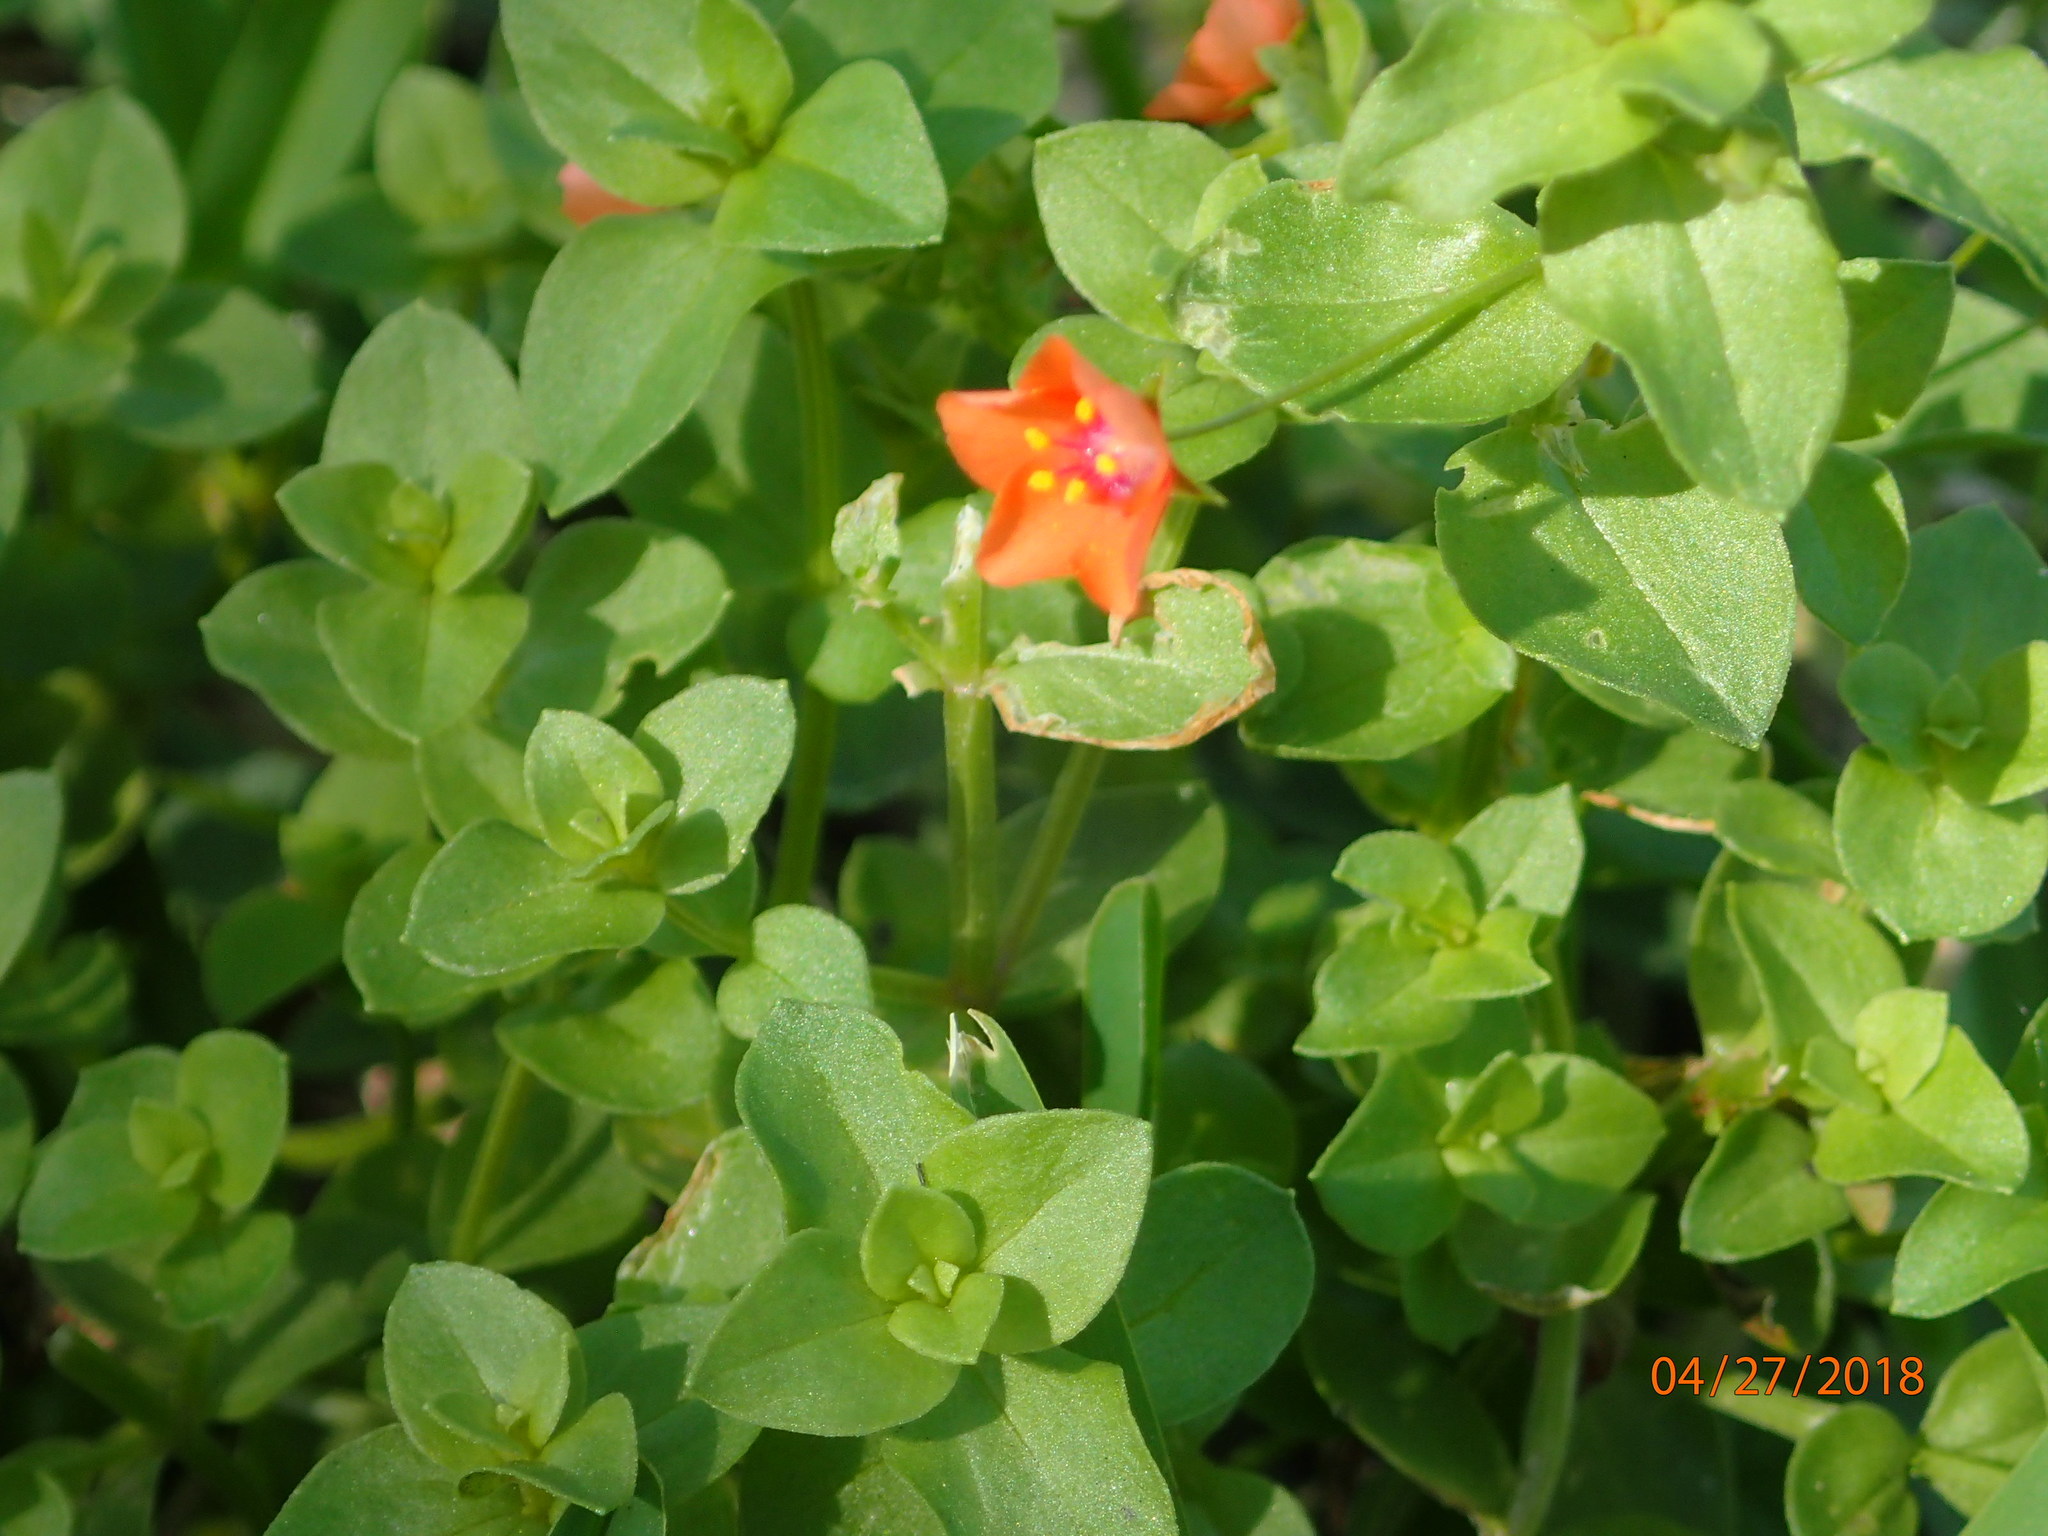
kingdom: Plantae
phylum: Tracheophyta
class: Magnoliopsida
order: Ericales
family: Primulaceae
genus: Lysimachia
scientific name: Lysimachia arvensis
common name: Scarlet pimpernel
